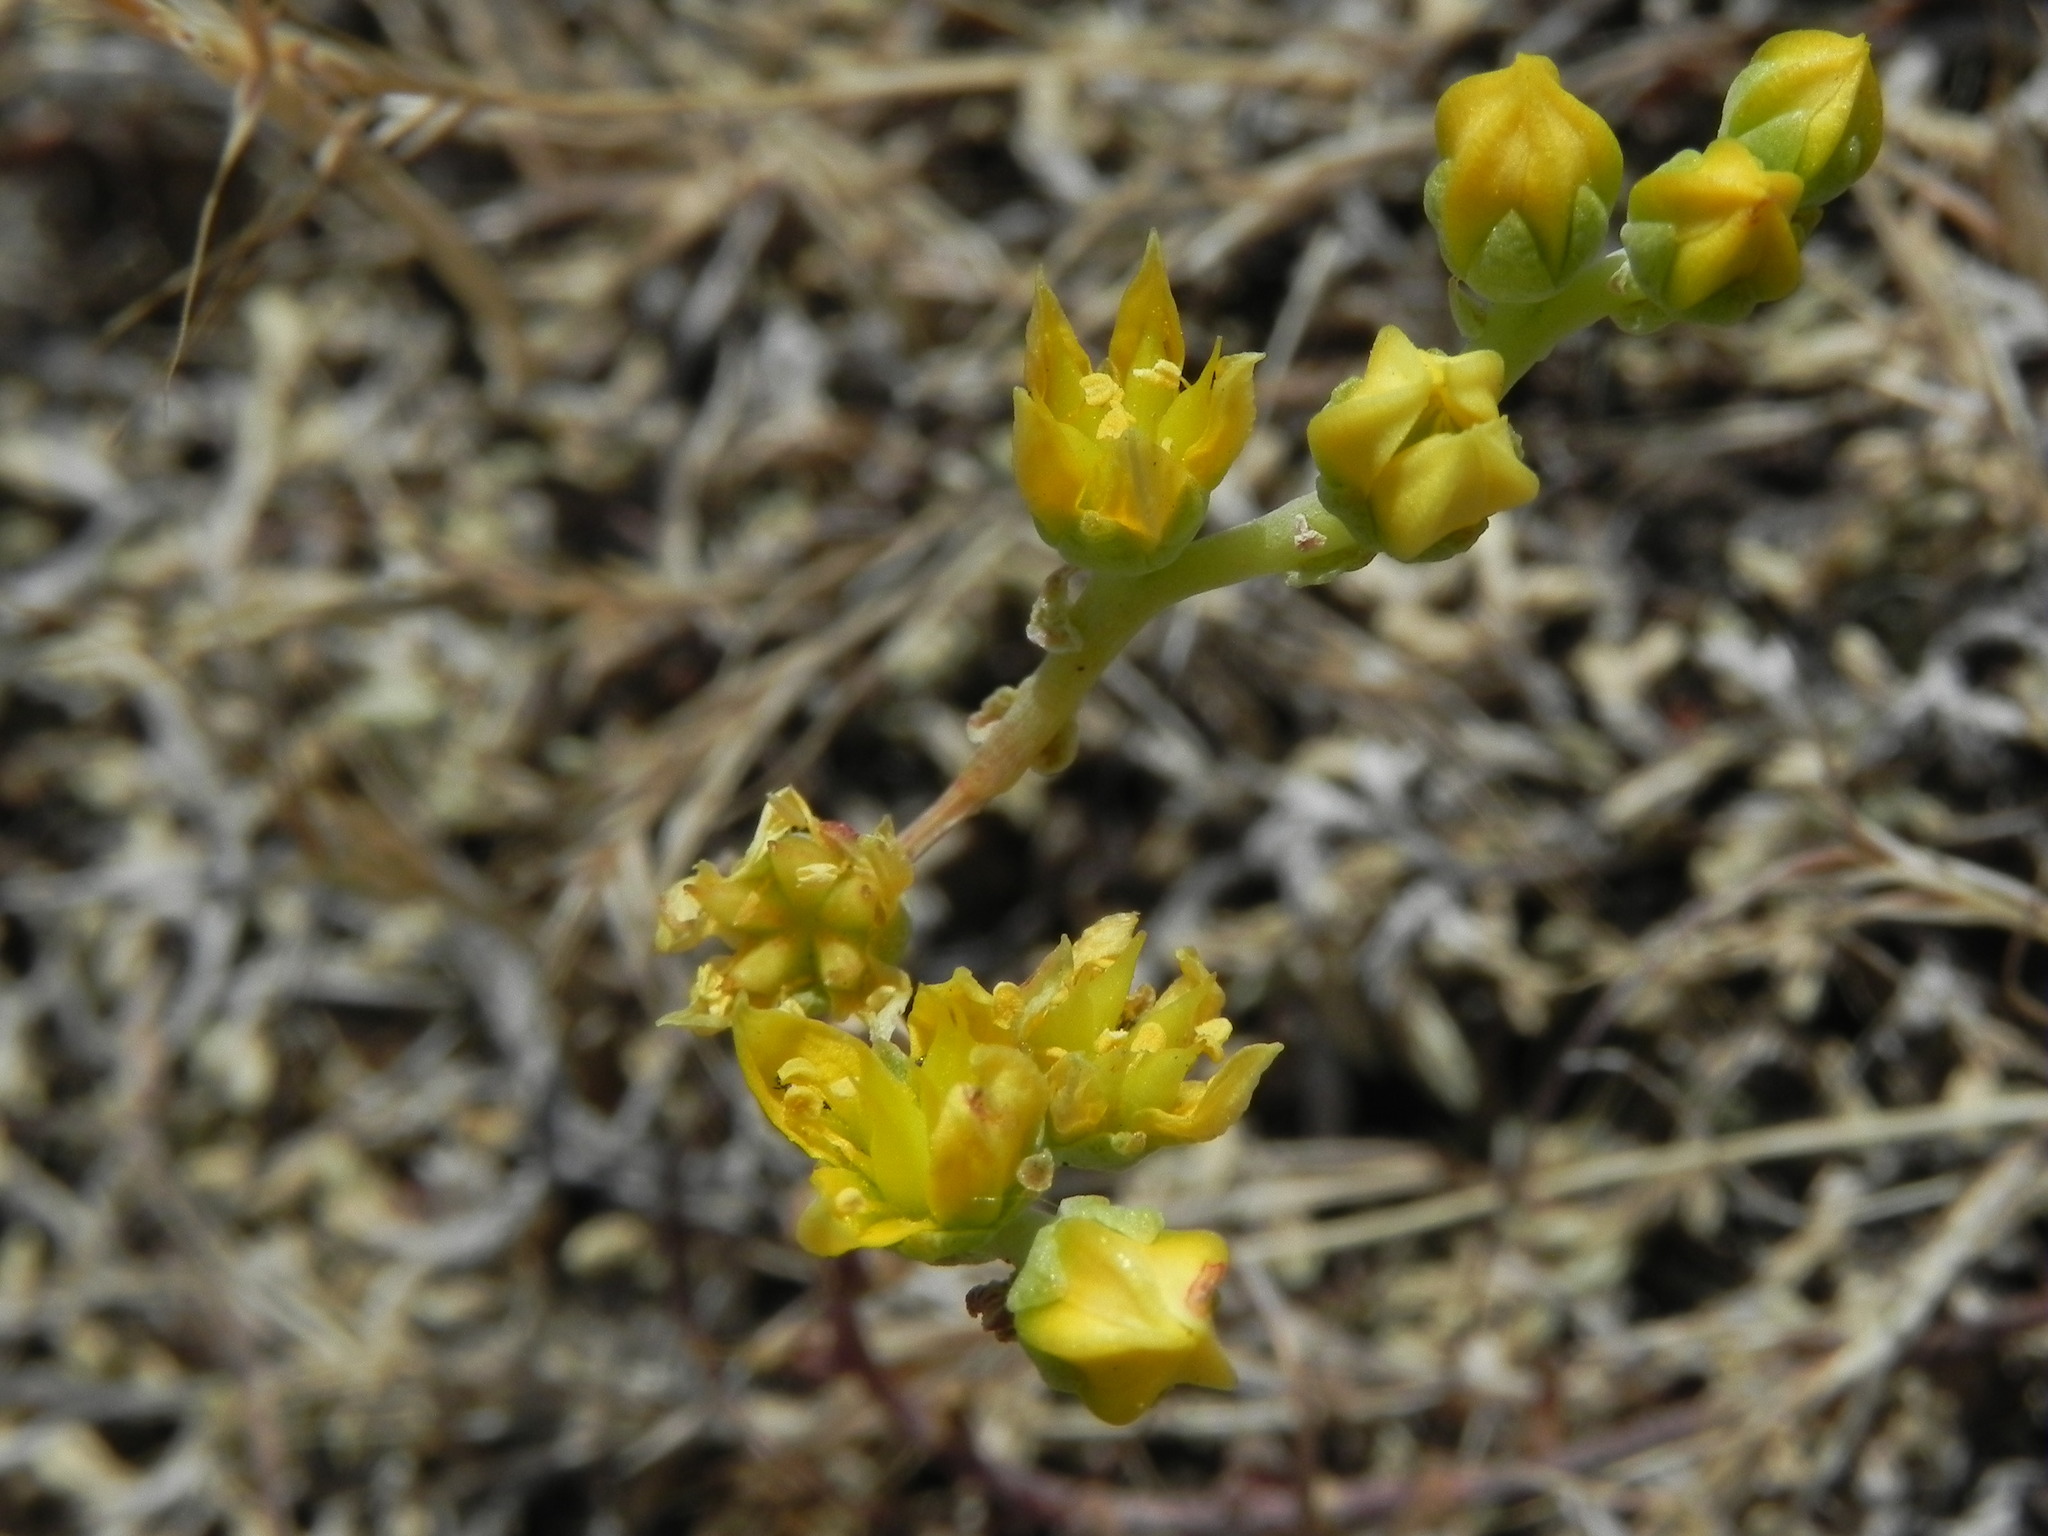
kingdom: Plantae
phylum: Tracheophyta
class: Magnoliopsida
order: Saxifragales
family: Crassulaceae
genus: Dudleya
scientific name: Dudleya variegata
